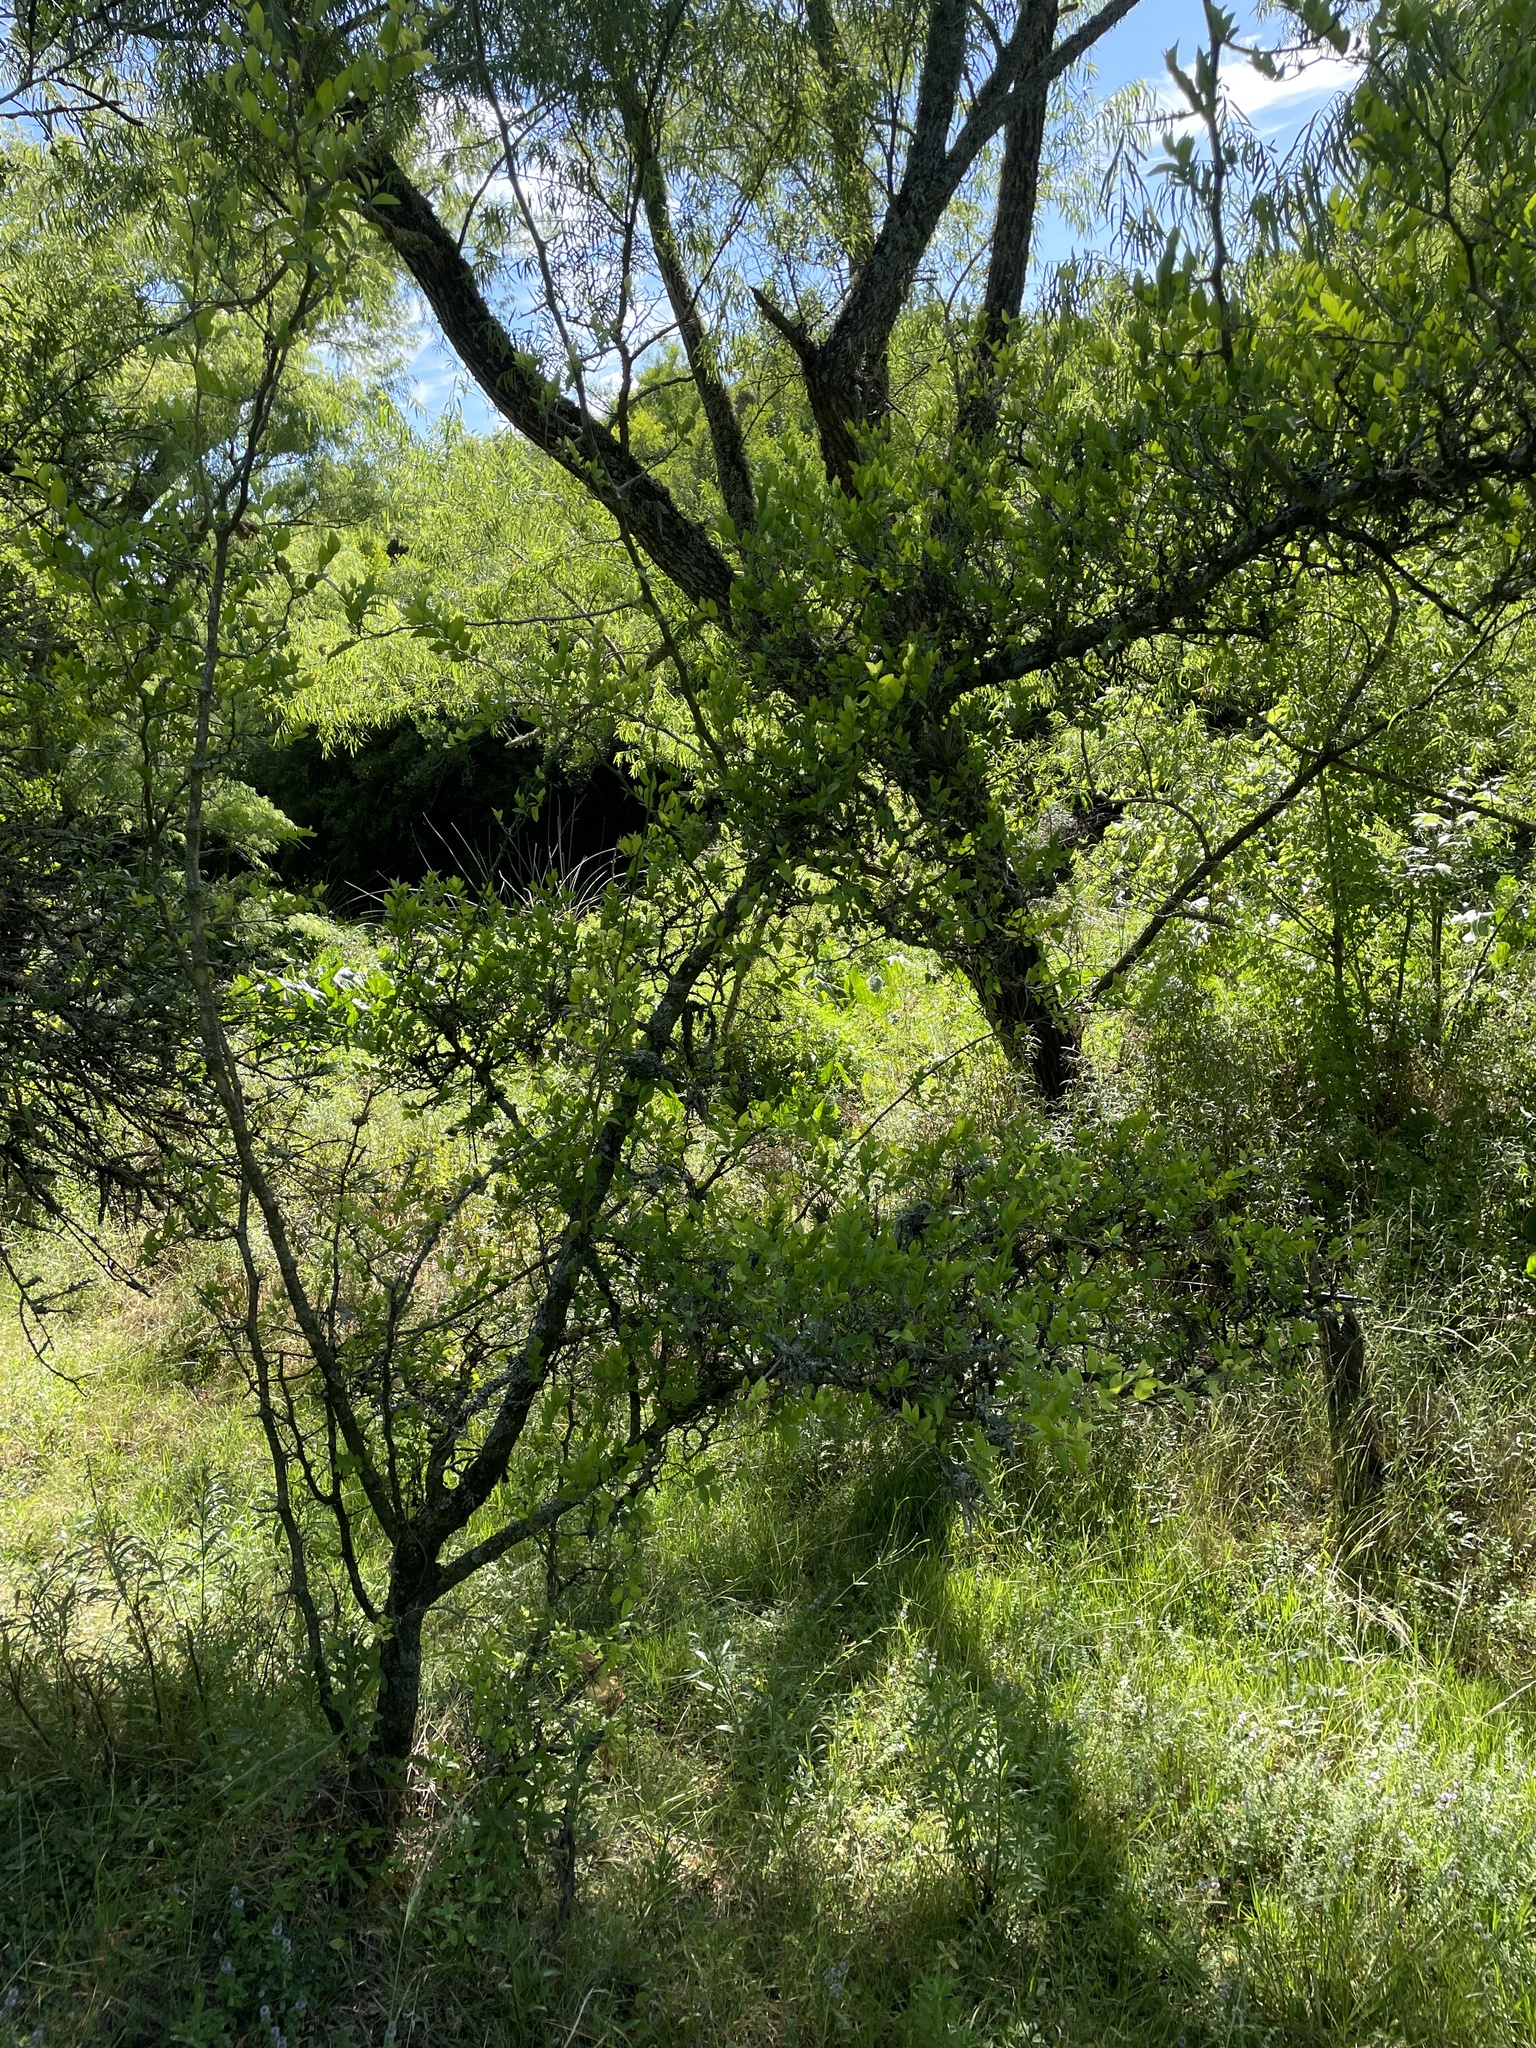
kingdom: Plantae
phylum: Tracheophyta
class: Magnoliopsida
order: Rosales
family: Cannabaceae
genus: Celtis
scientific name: Celtis tala
